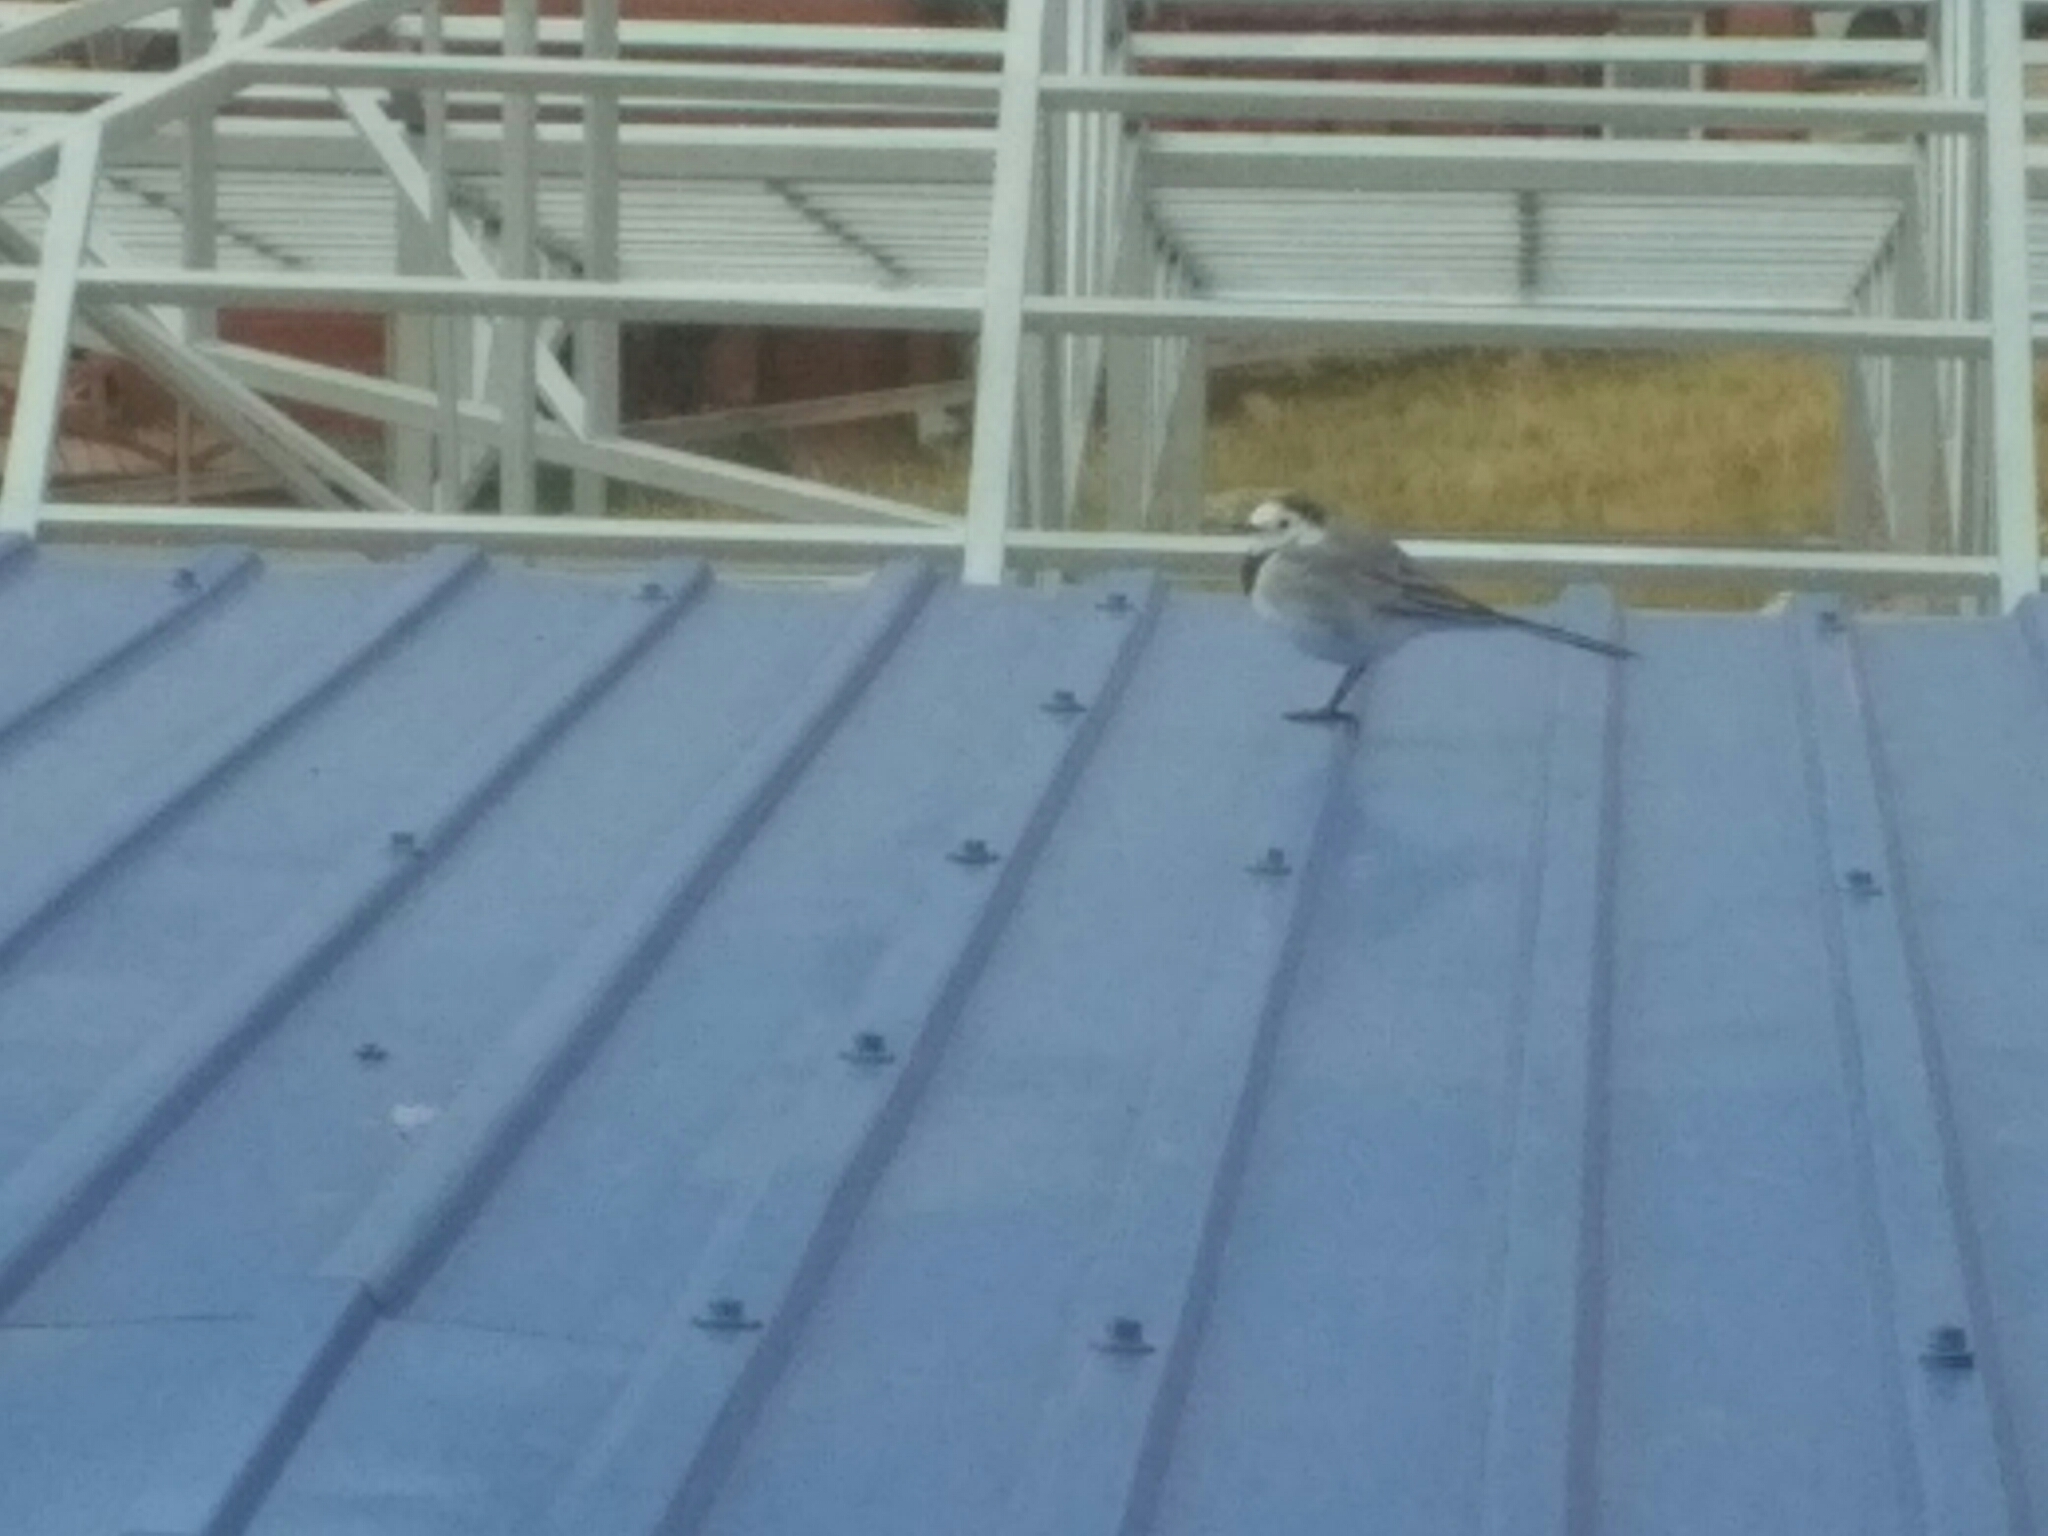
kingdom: Animalia
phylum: Chordata
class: Aves
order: Passeriformes
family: Motacillidae
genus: Motacilla
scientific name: Motacilla alba
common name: White wagtail
